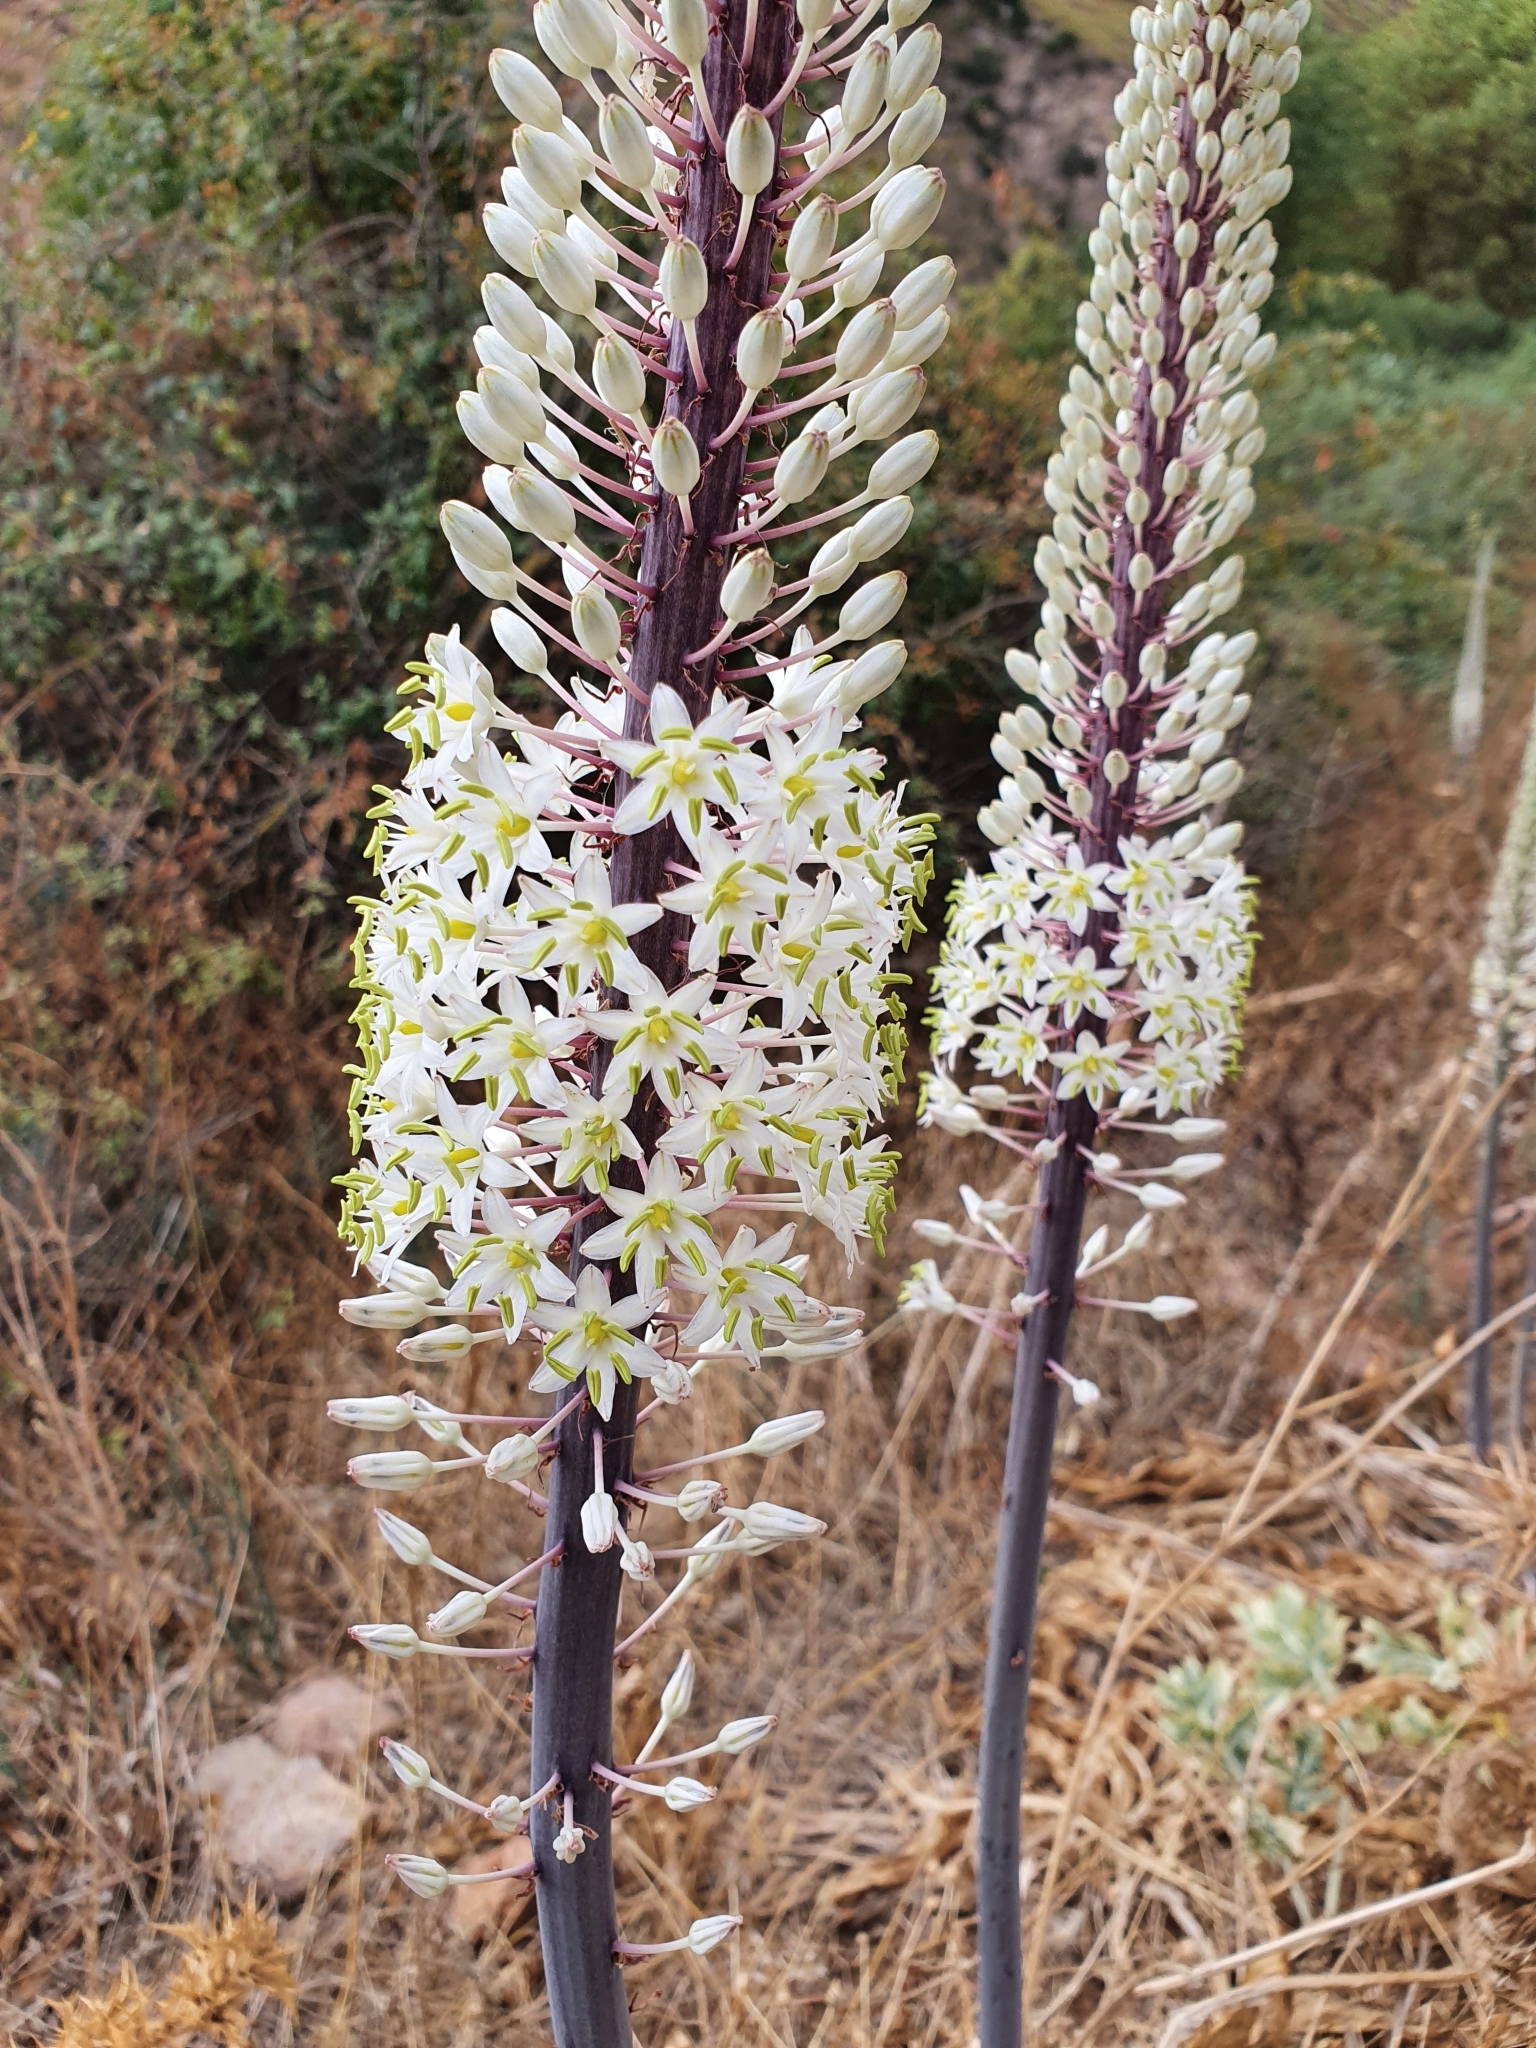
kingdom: Plantae
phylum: Tracheophyta
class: Liliopsida
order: Asparagales
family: Asparagaceae
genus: Drimia
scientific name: Drimia numidica
